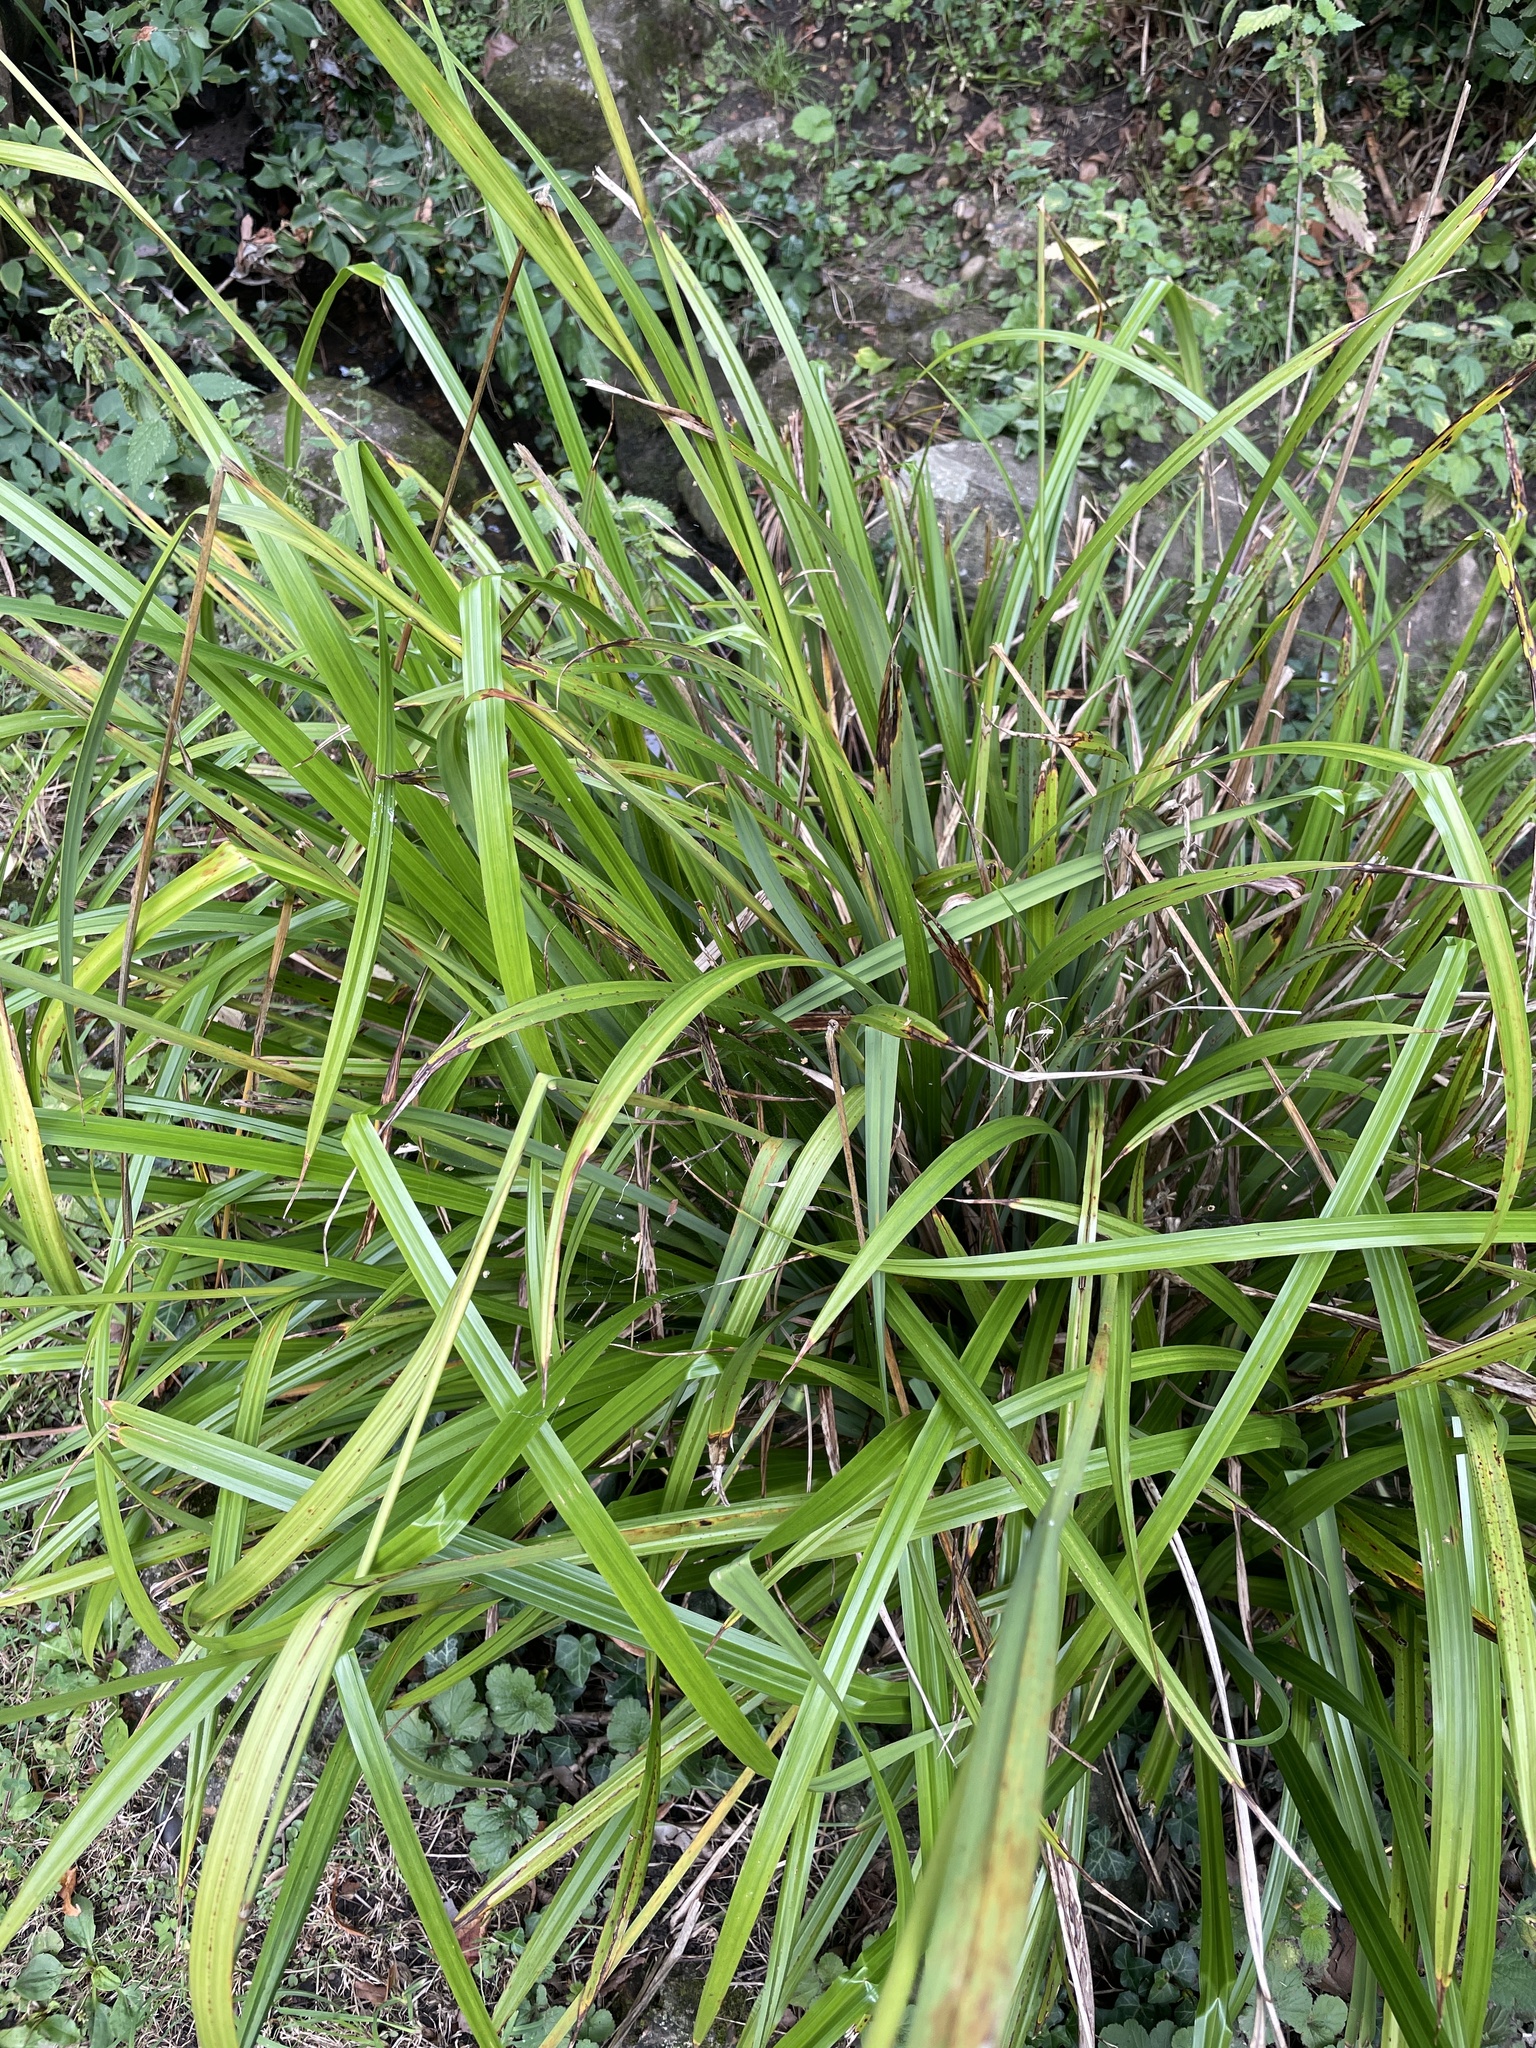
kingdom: Plantae
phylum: Tracheophyta
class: Liliopsida
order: Poales
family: Cyperaceae
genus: Carex
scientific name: Carex pendula
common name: Pendulous sedge
